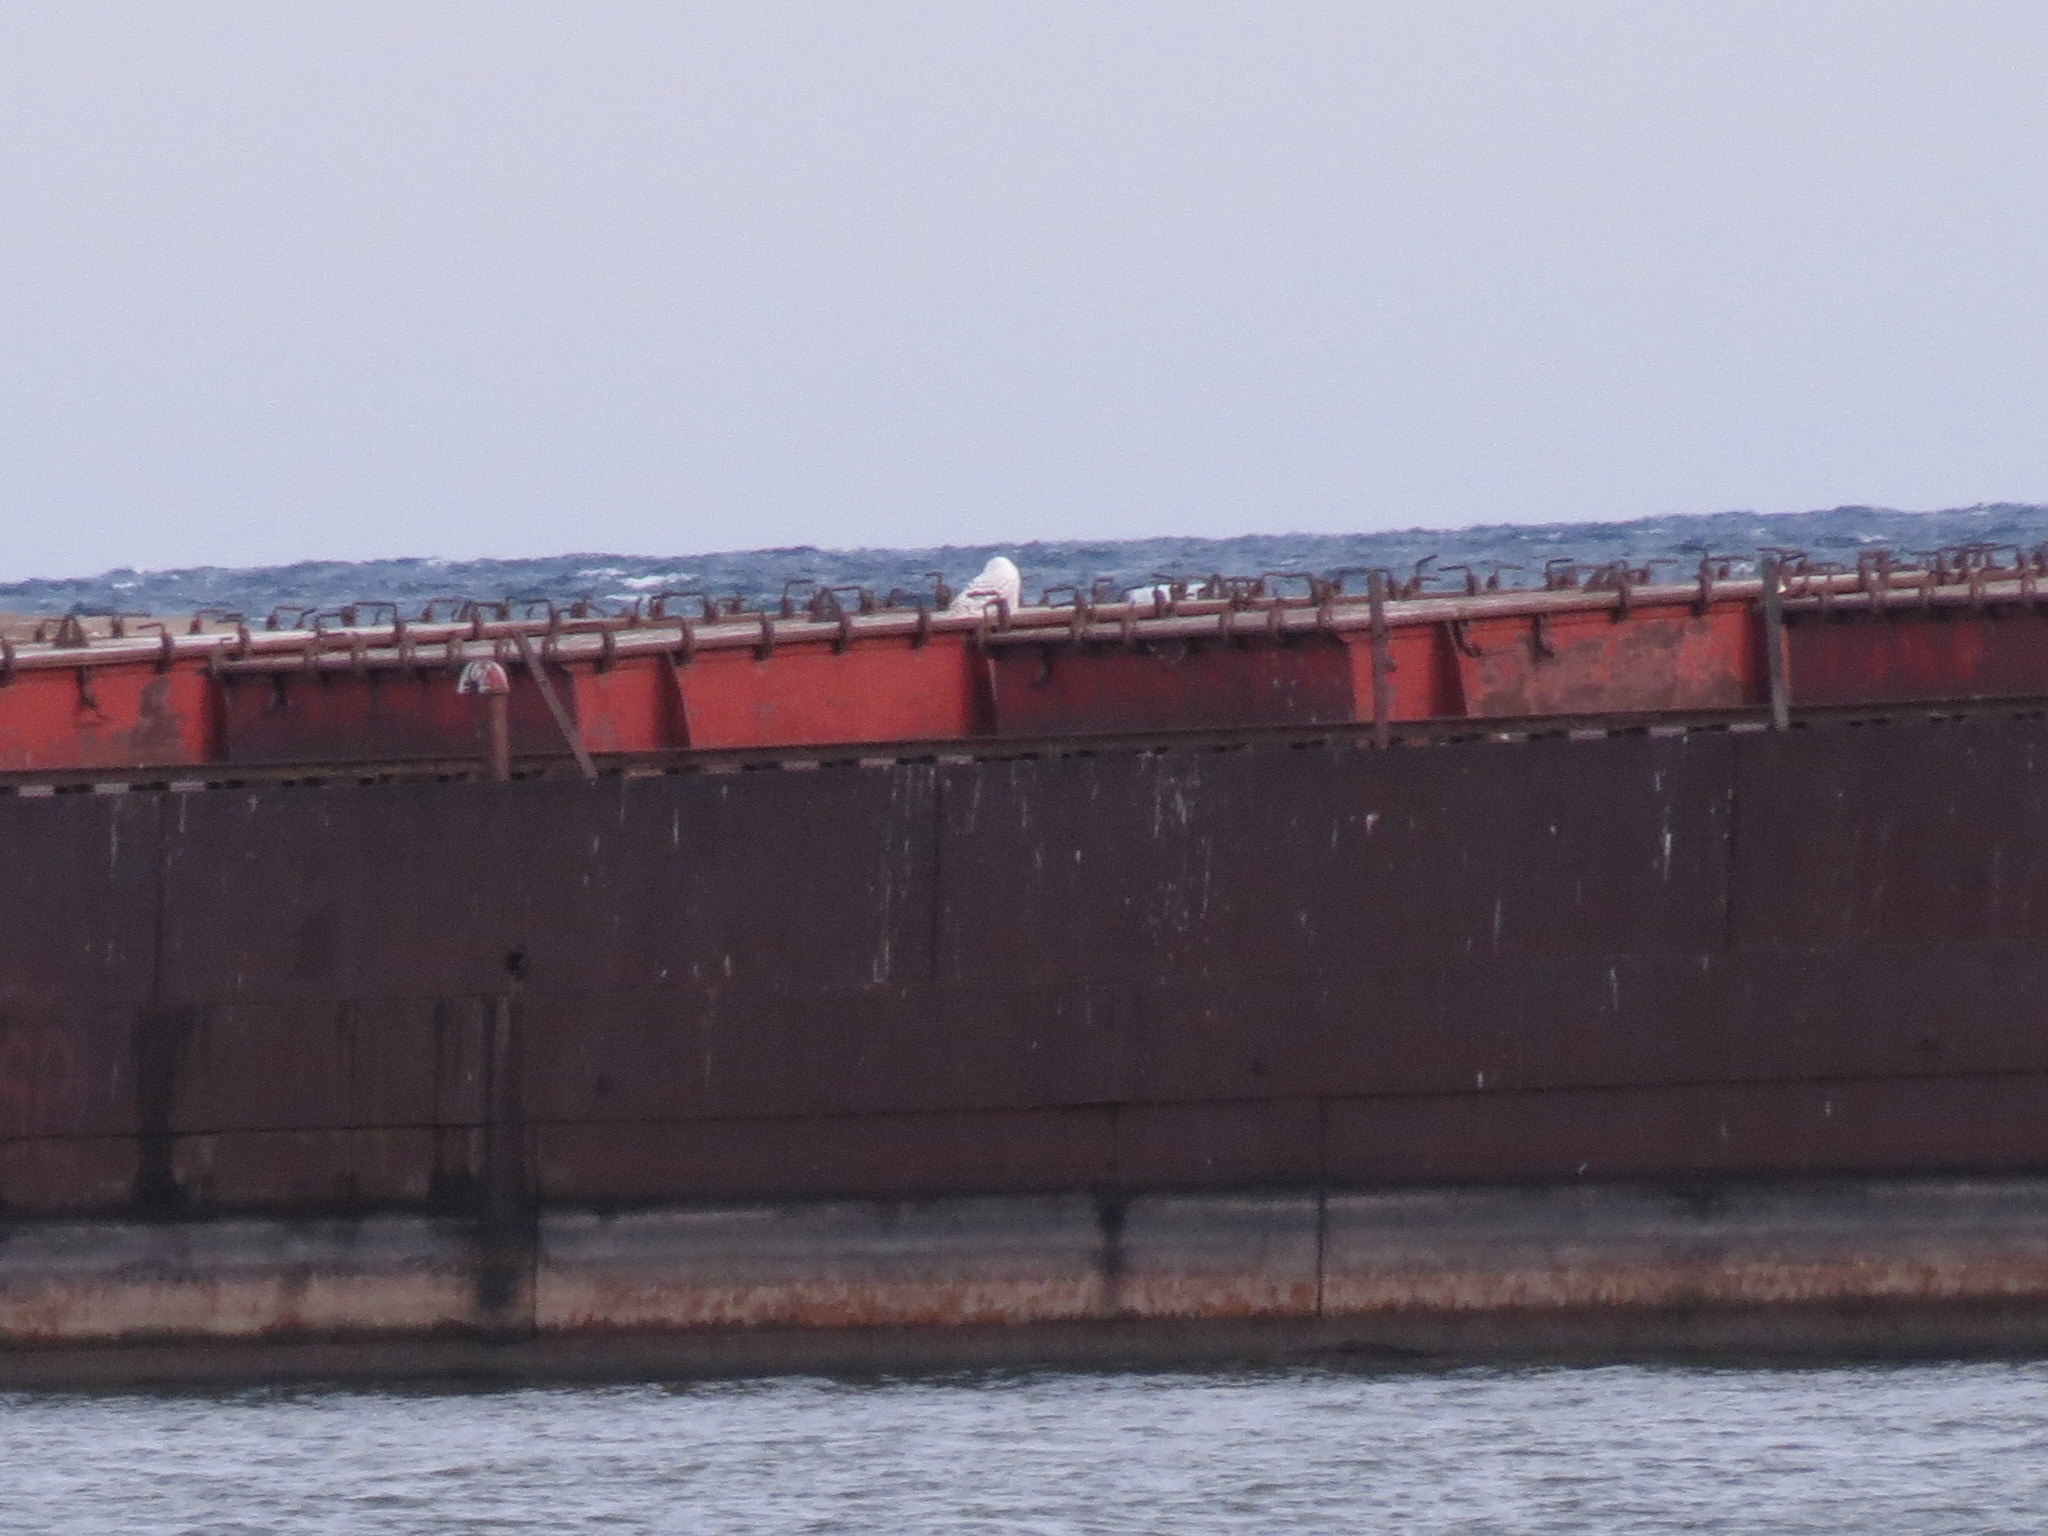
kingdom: Animalia
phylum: Chordata
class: Aves
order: Strigiformes
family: Strigidae
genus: Bubo
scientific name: Bubo scandiacus
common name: Snowy owl
